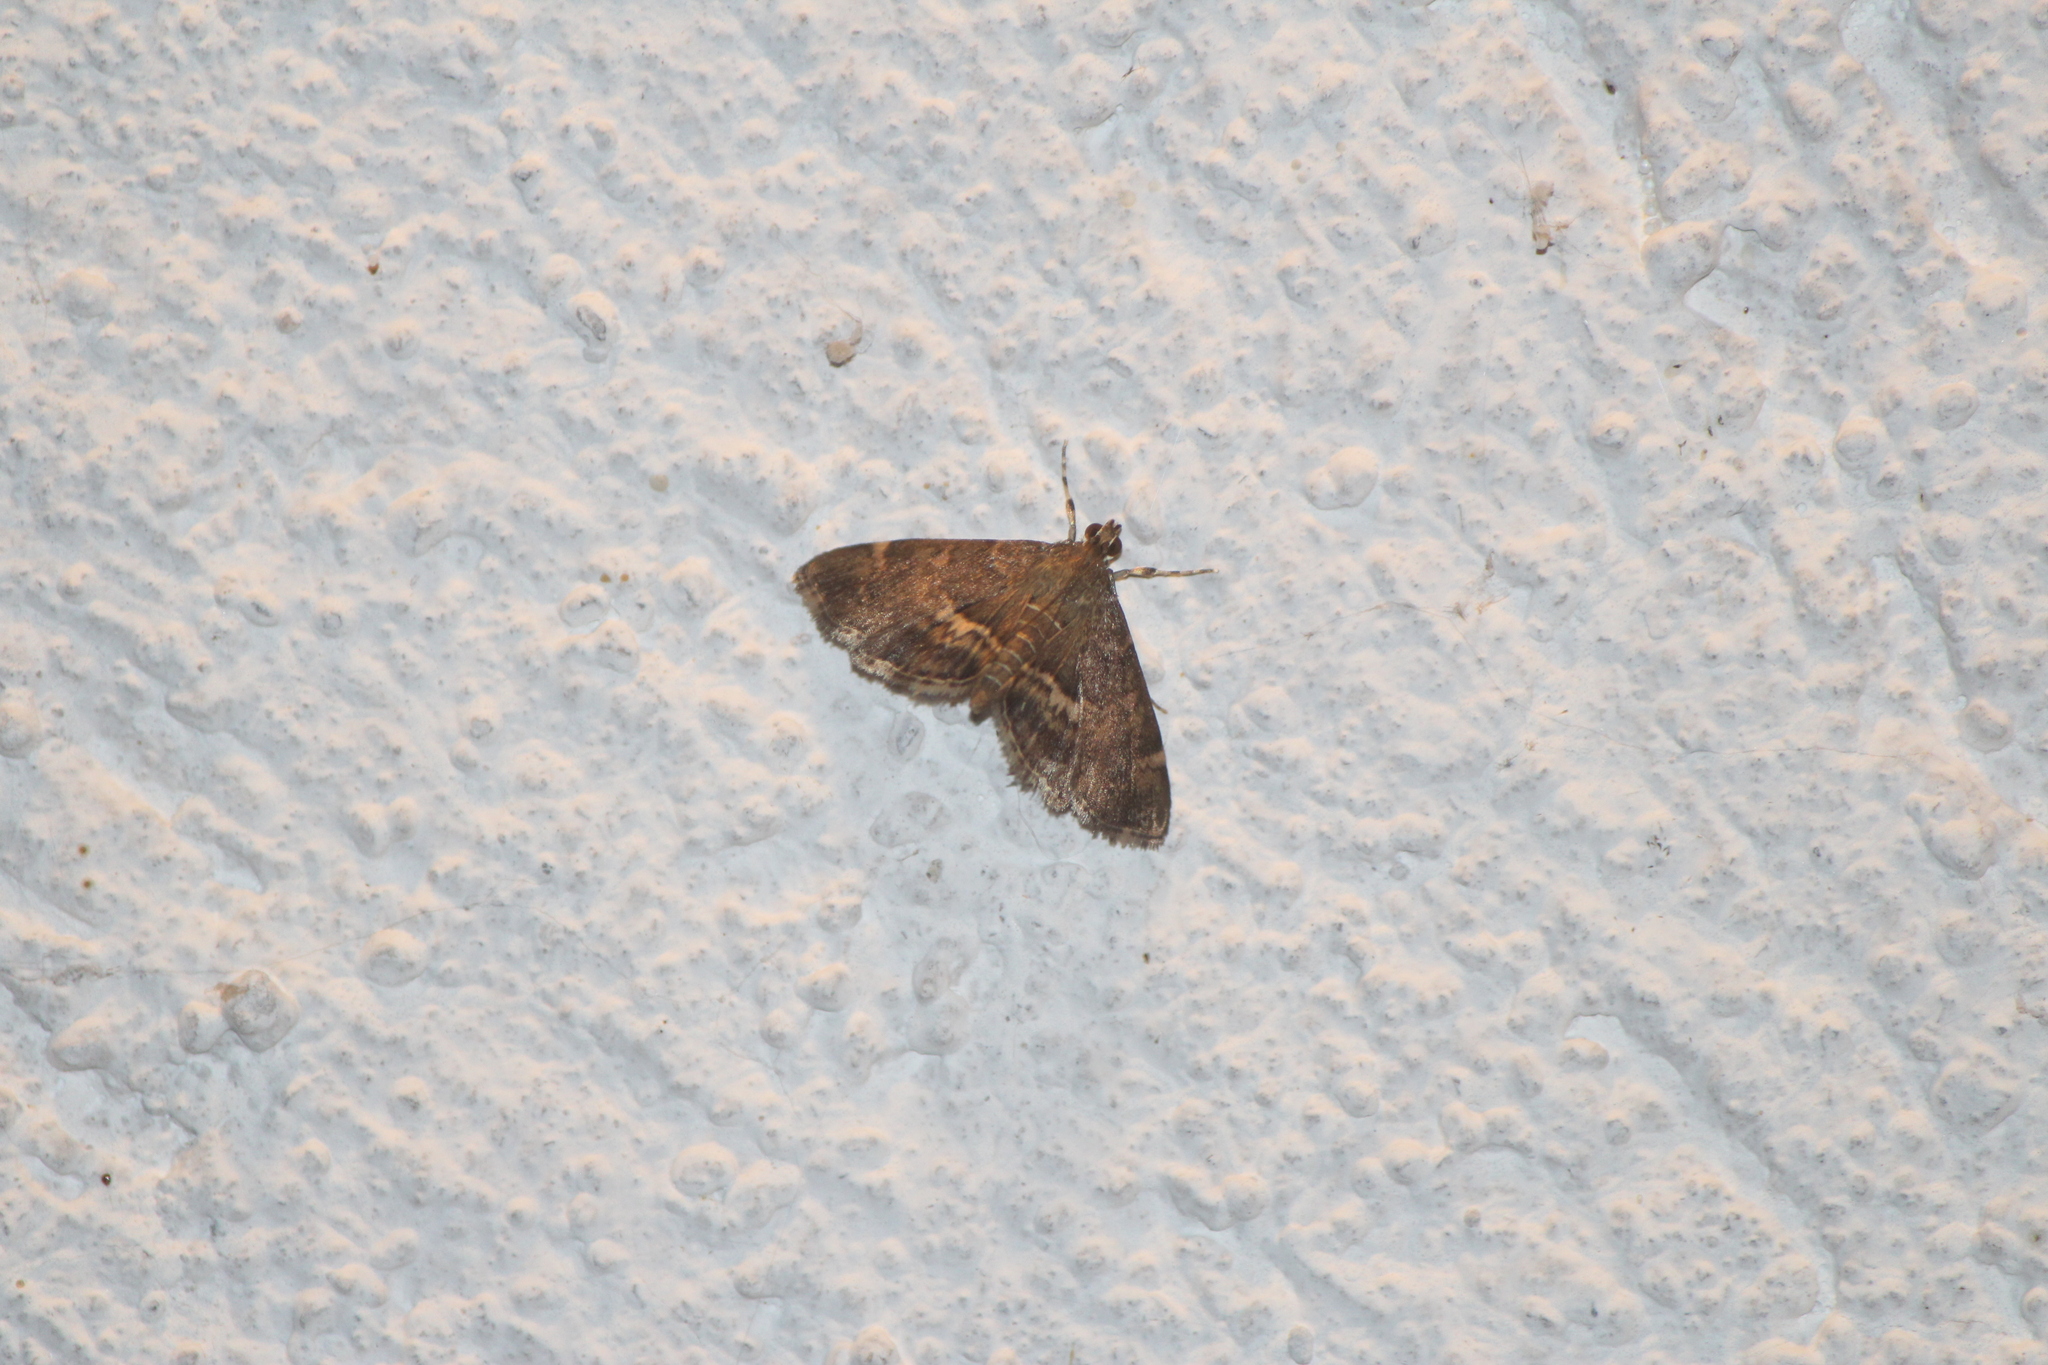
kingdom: Animalia
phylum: Arthropoda
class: Insecta
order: Lepidoptera
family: Crambidae
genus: Hymenia
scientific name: Hymenia perspectalis
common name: Spotted beet webworm
